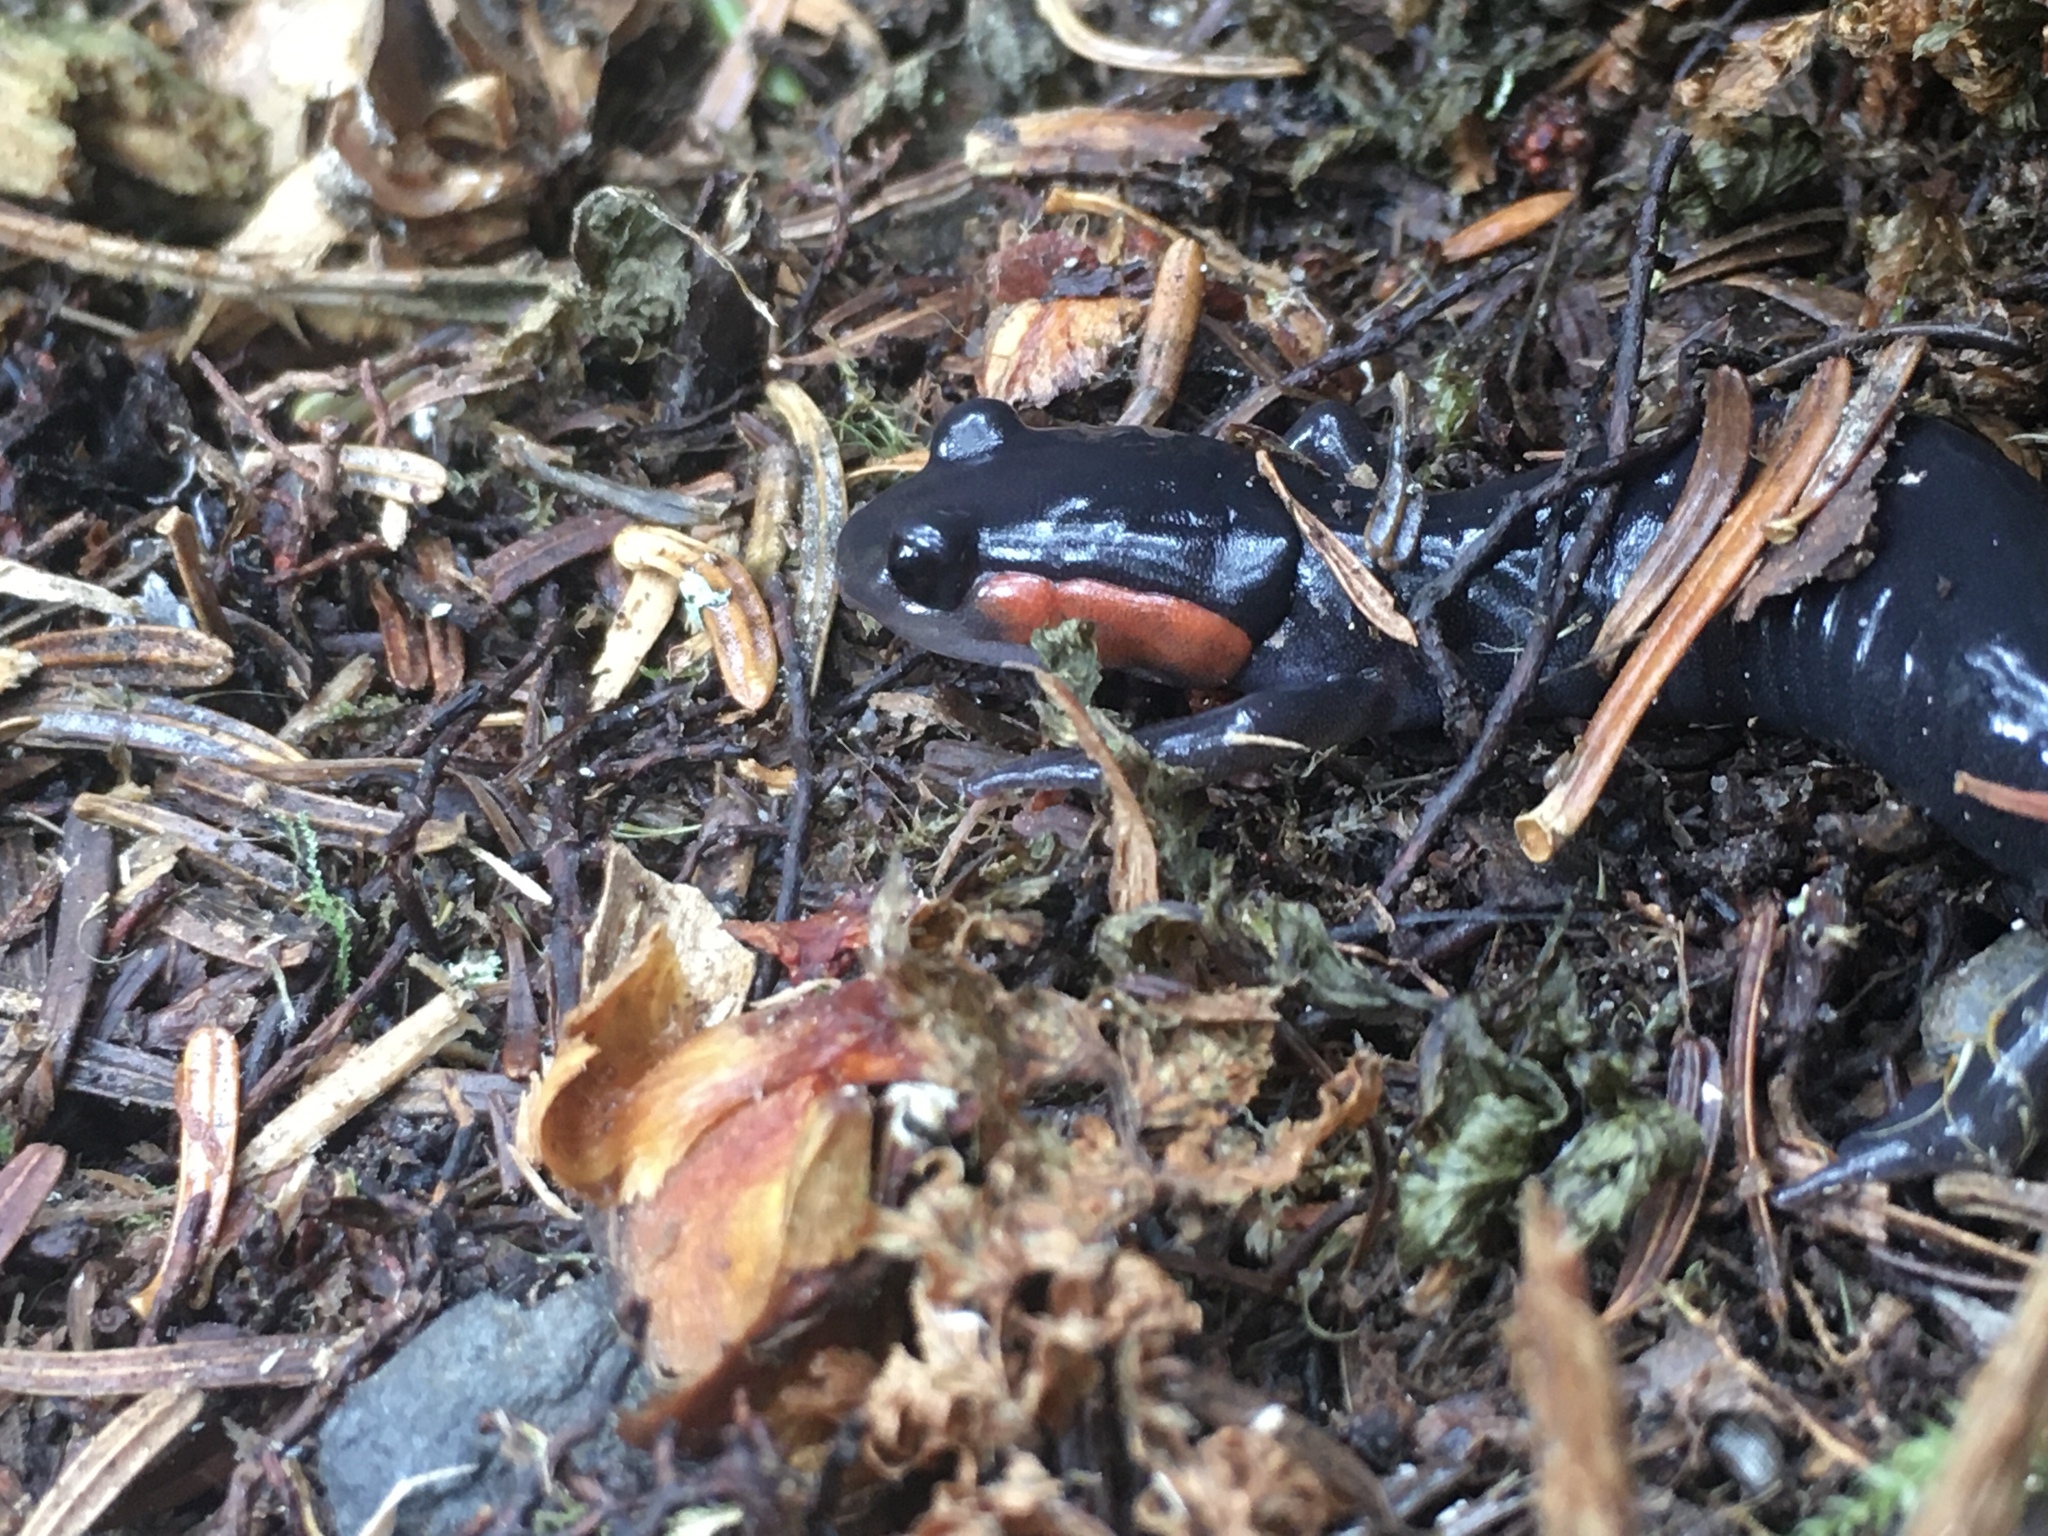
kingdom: Animalia
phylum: Chordata
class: Amphibia
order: Caudata
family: Plethodontidae
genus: Plethodon
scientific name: Plethodon jordani
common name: Red-cheeked salamander
